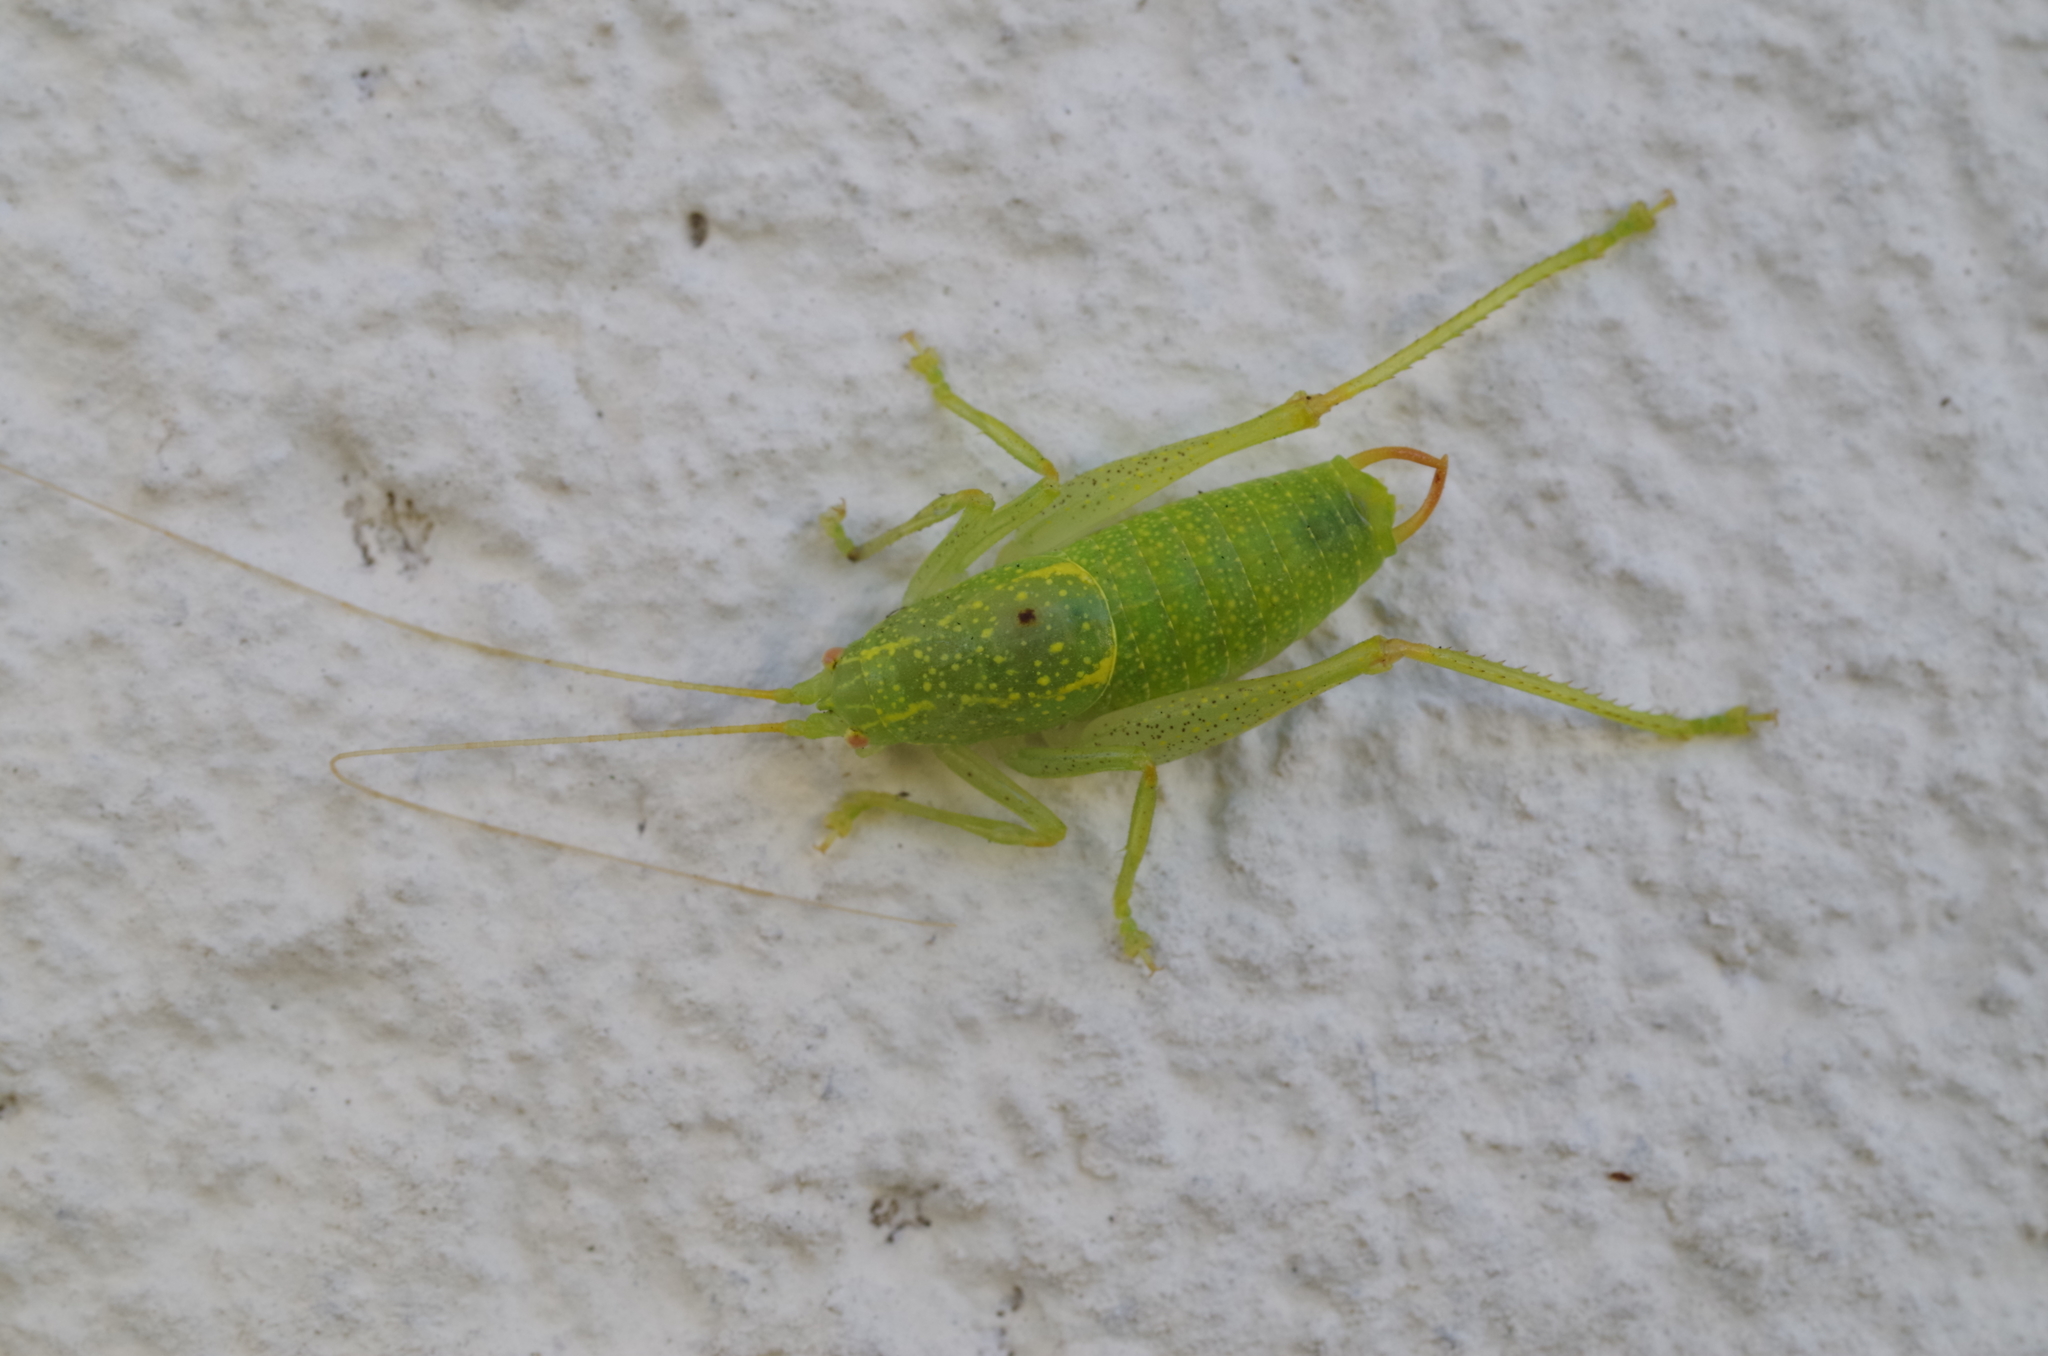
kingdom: Animalia
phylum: Arthropoda
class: Insecta
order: Orthoptera
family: Tettigoniidae
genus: Cyrtaspis
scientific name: Cyrtaspis scutata
